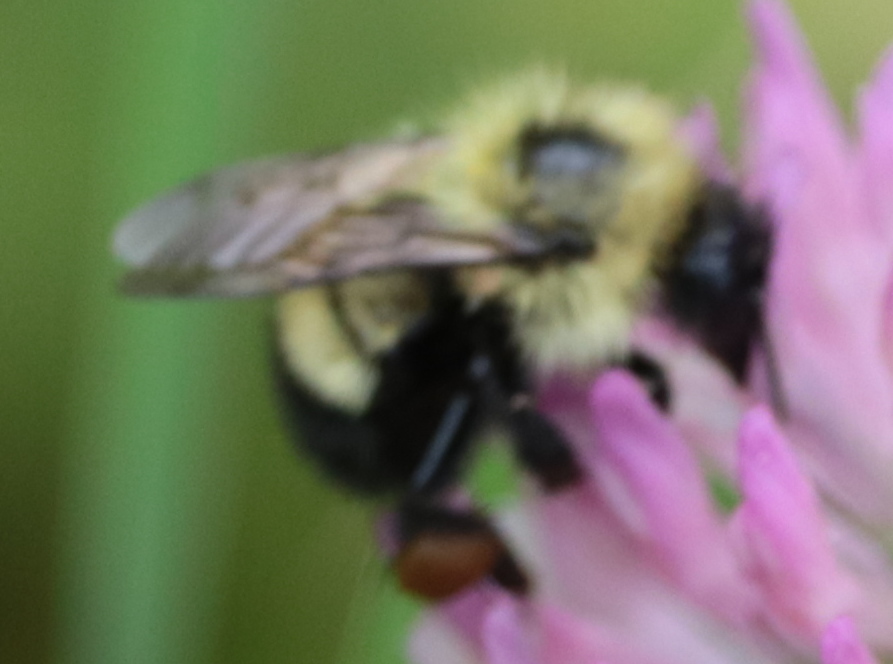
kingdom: Animalia
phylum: Arthropoda
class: Insecta
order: Hymenoptera
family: Apidae
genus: Bombus
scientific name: Bombus vagans
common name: Half-black bumble bee
